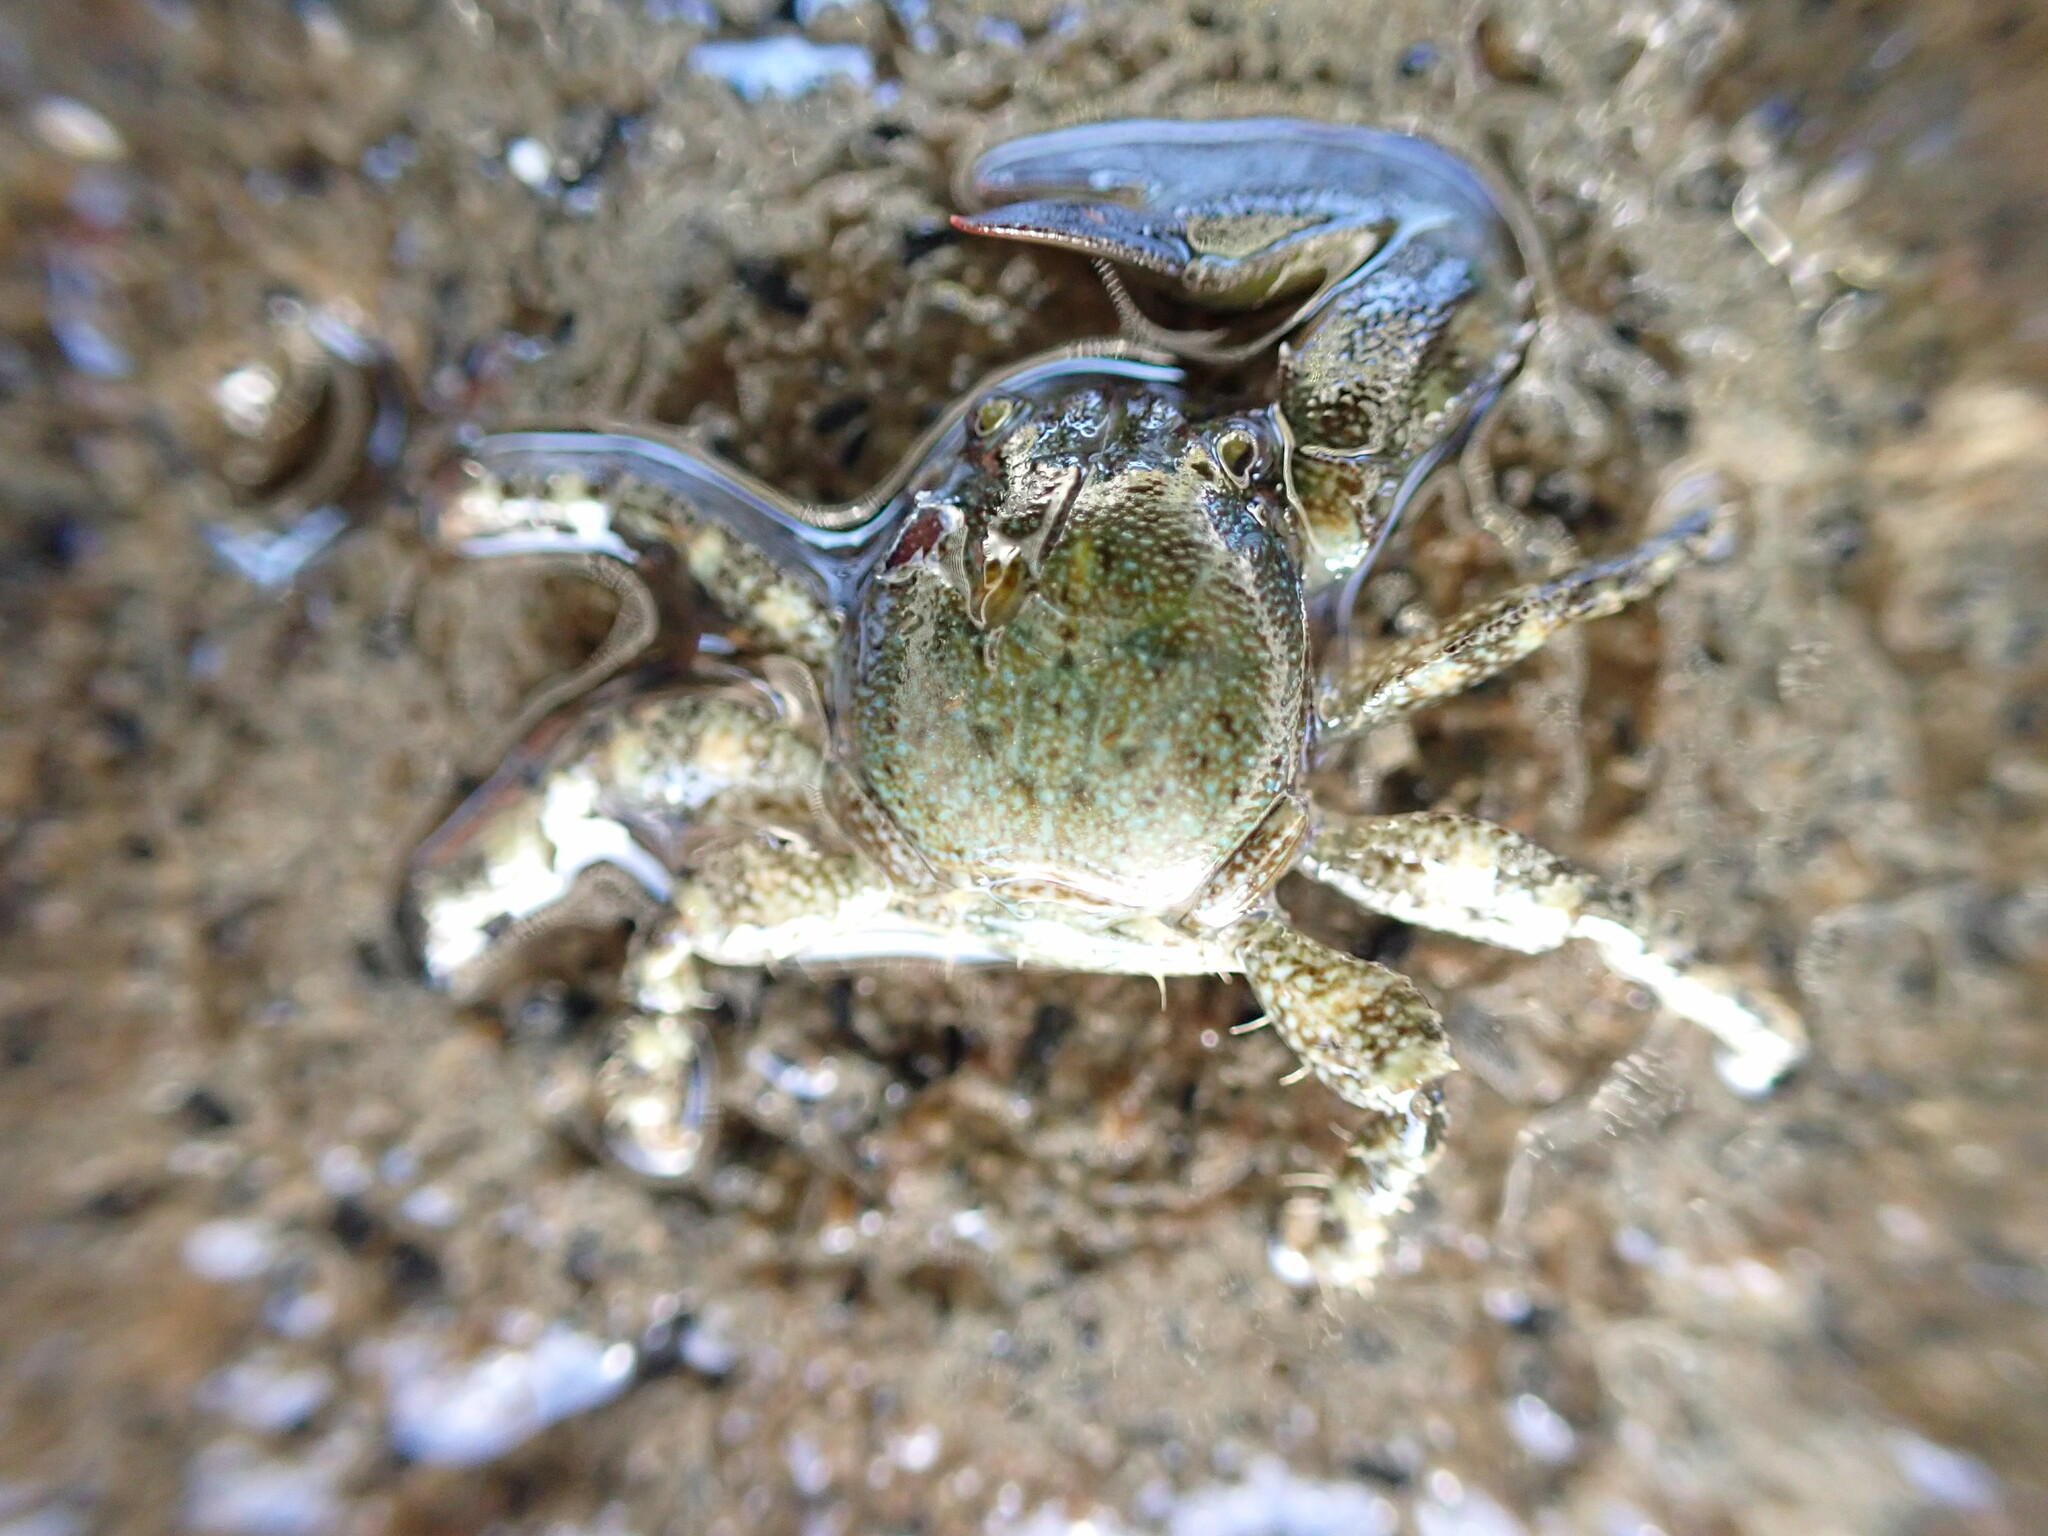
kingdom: Animalia
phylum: Arthropoda
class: Malacostraca
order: Decapoda
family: Porcellanidae
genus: Petrolisthes
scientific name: Petrolisthes elongatus
